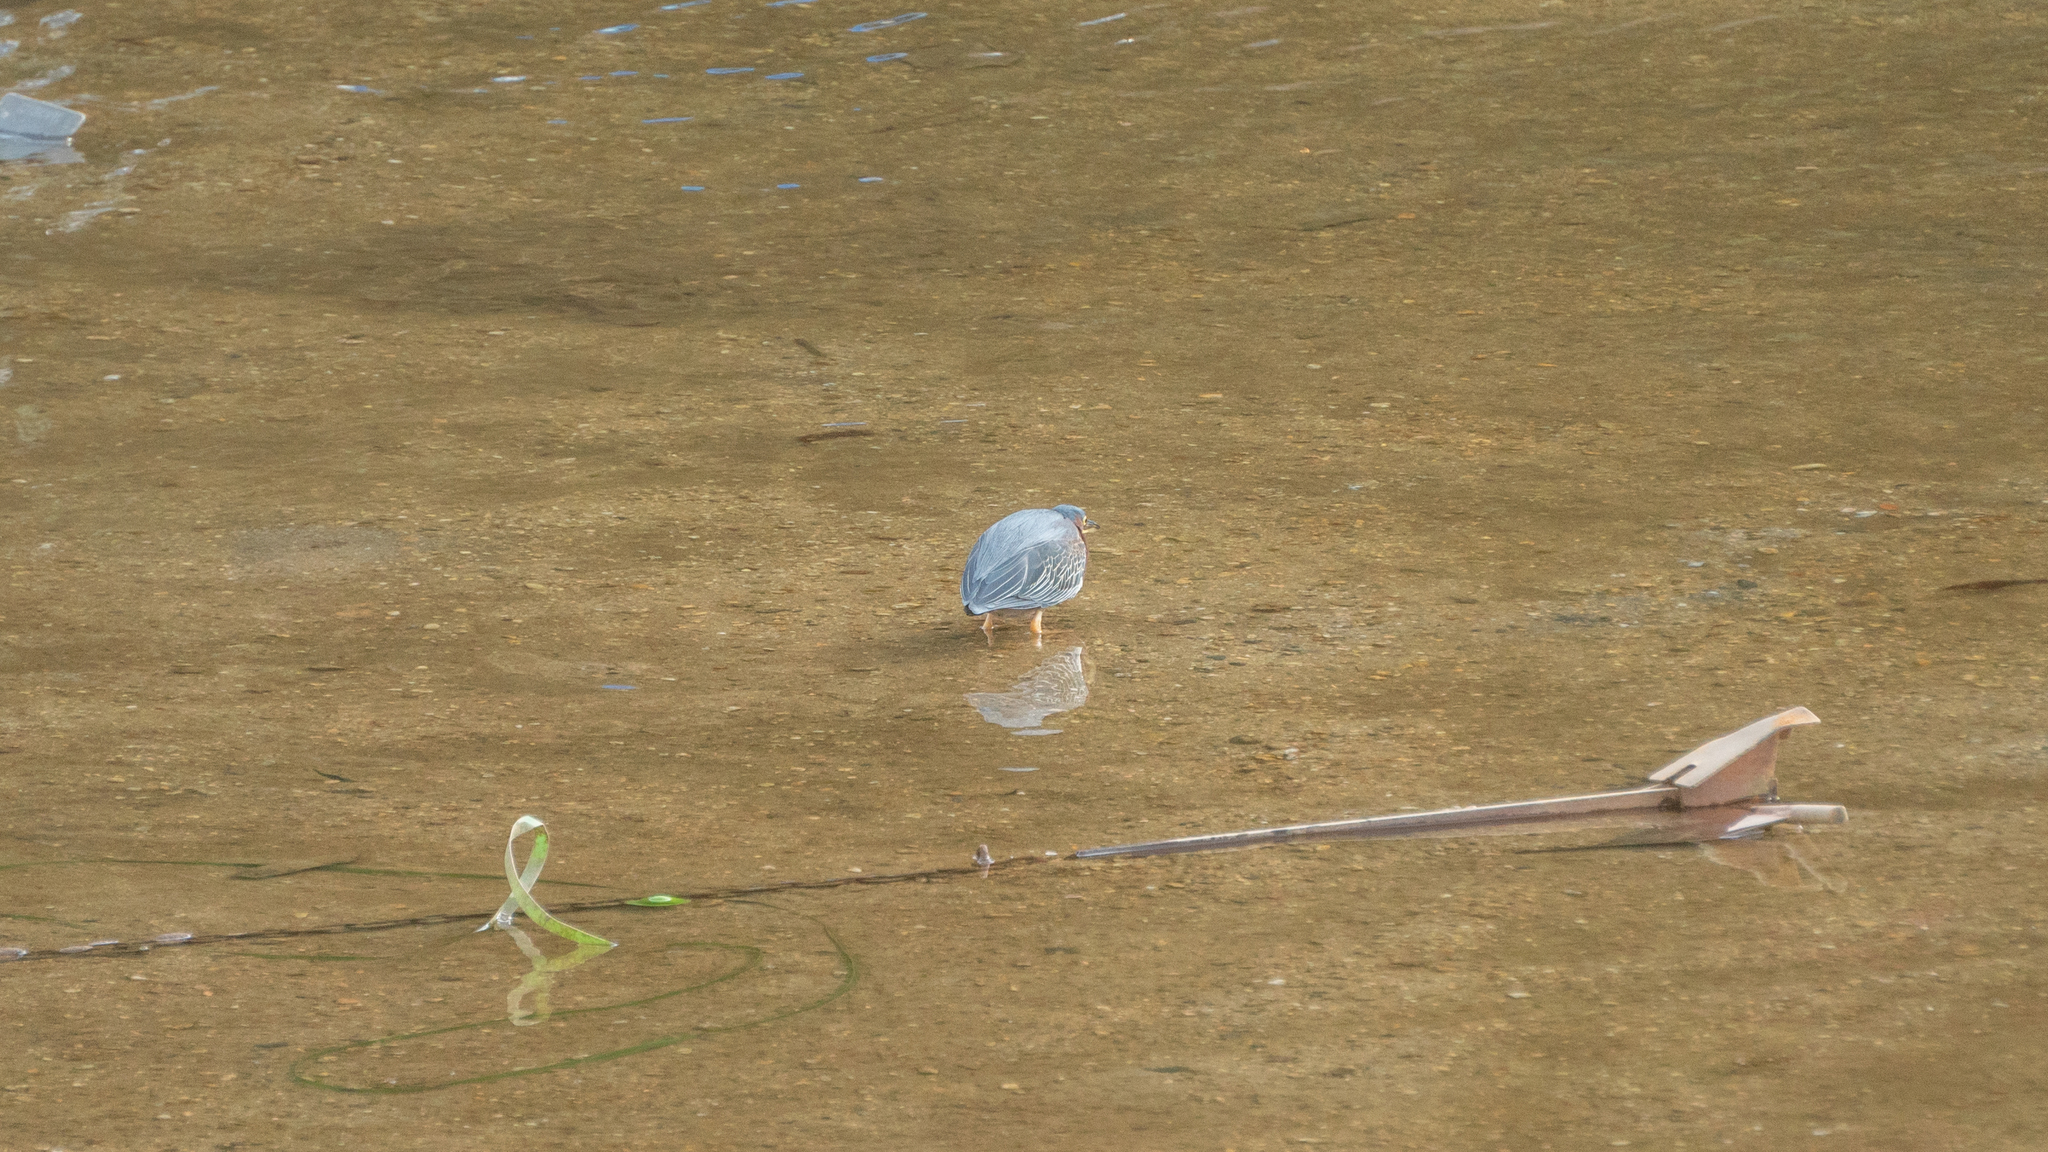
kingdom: Animalia
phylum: Chordata
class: Aves
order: Pelecaniformes
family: Ardeidae
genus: Butorides
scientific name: Butorides virescens
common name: Green heron
